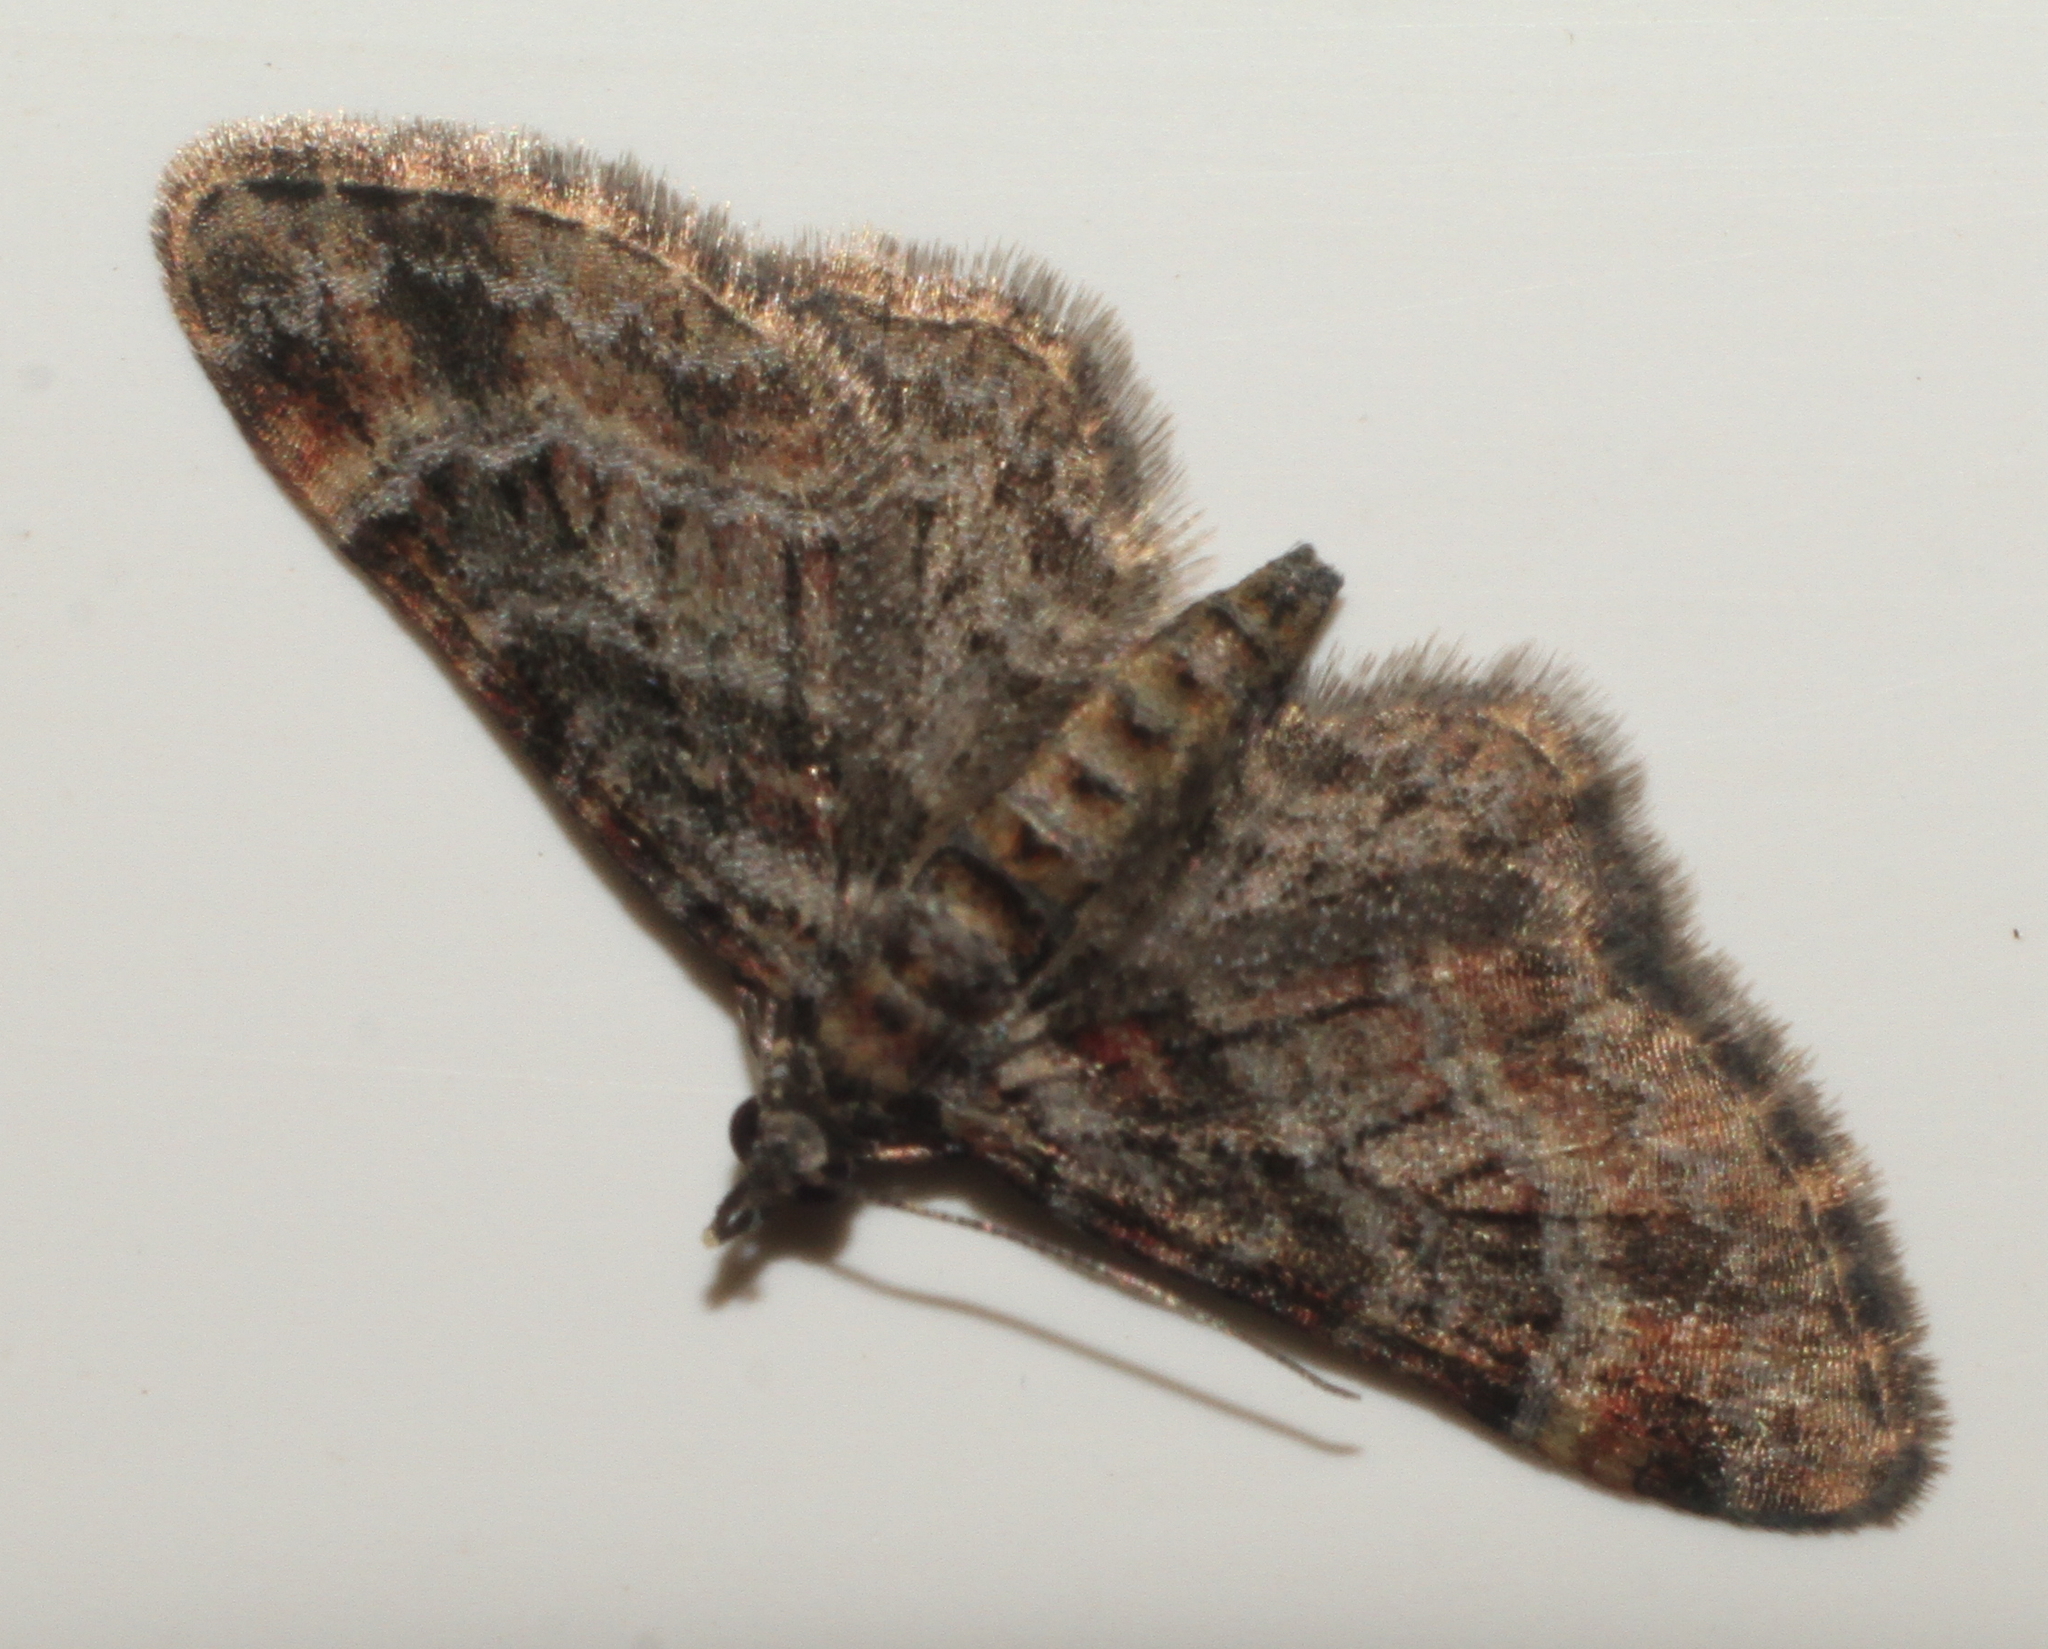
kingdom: Animalia
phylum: Arthropoda
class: Insecta
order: Lepidoptera
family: Geometridae
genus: Gymnoscelis
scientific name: Gymnoscelis rufifasciata
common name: Double-striped pug
